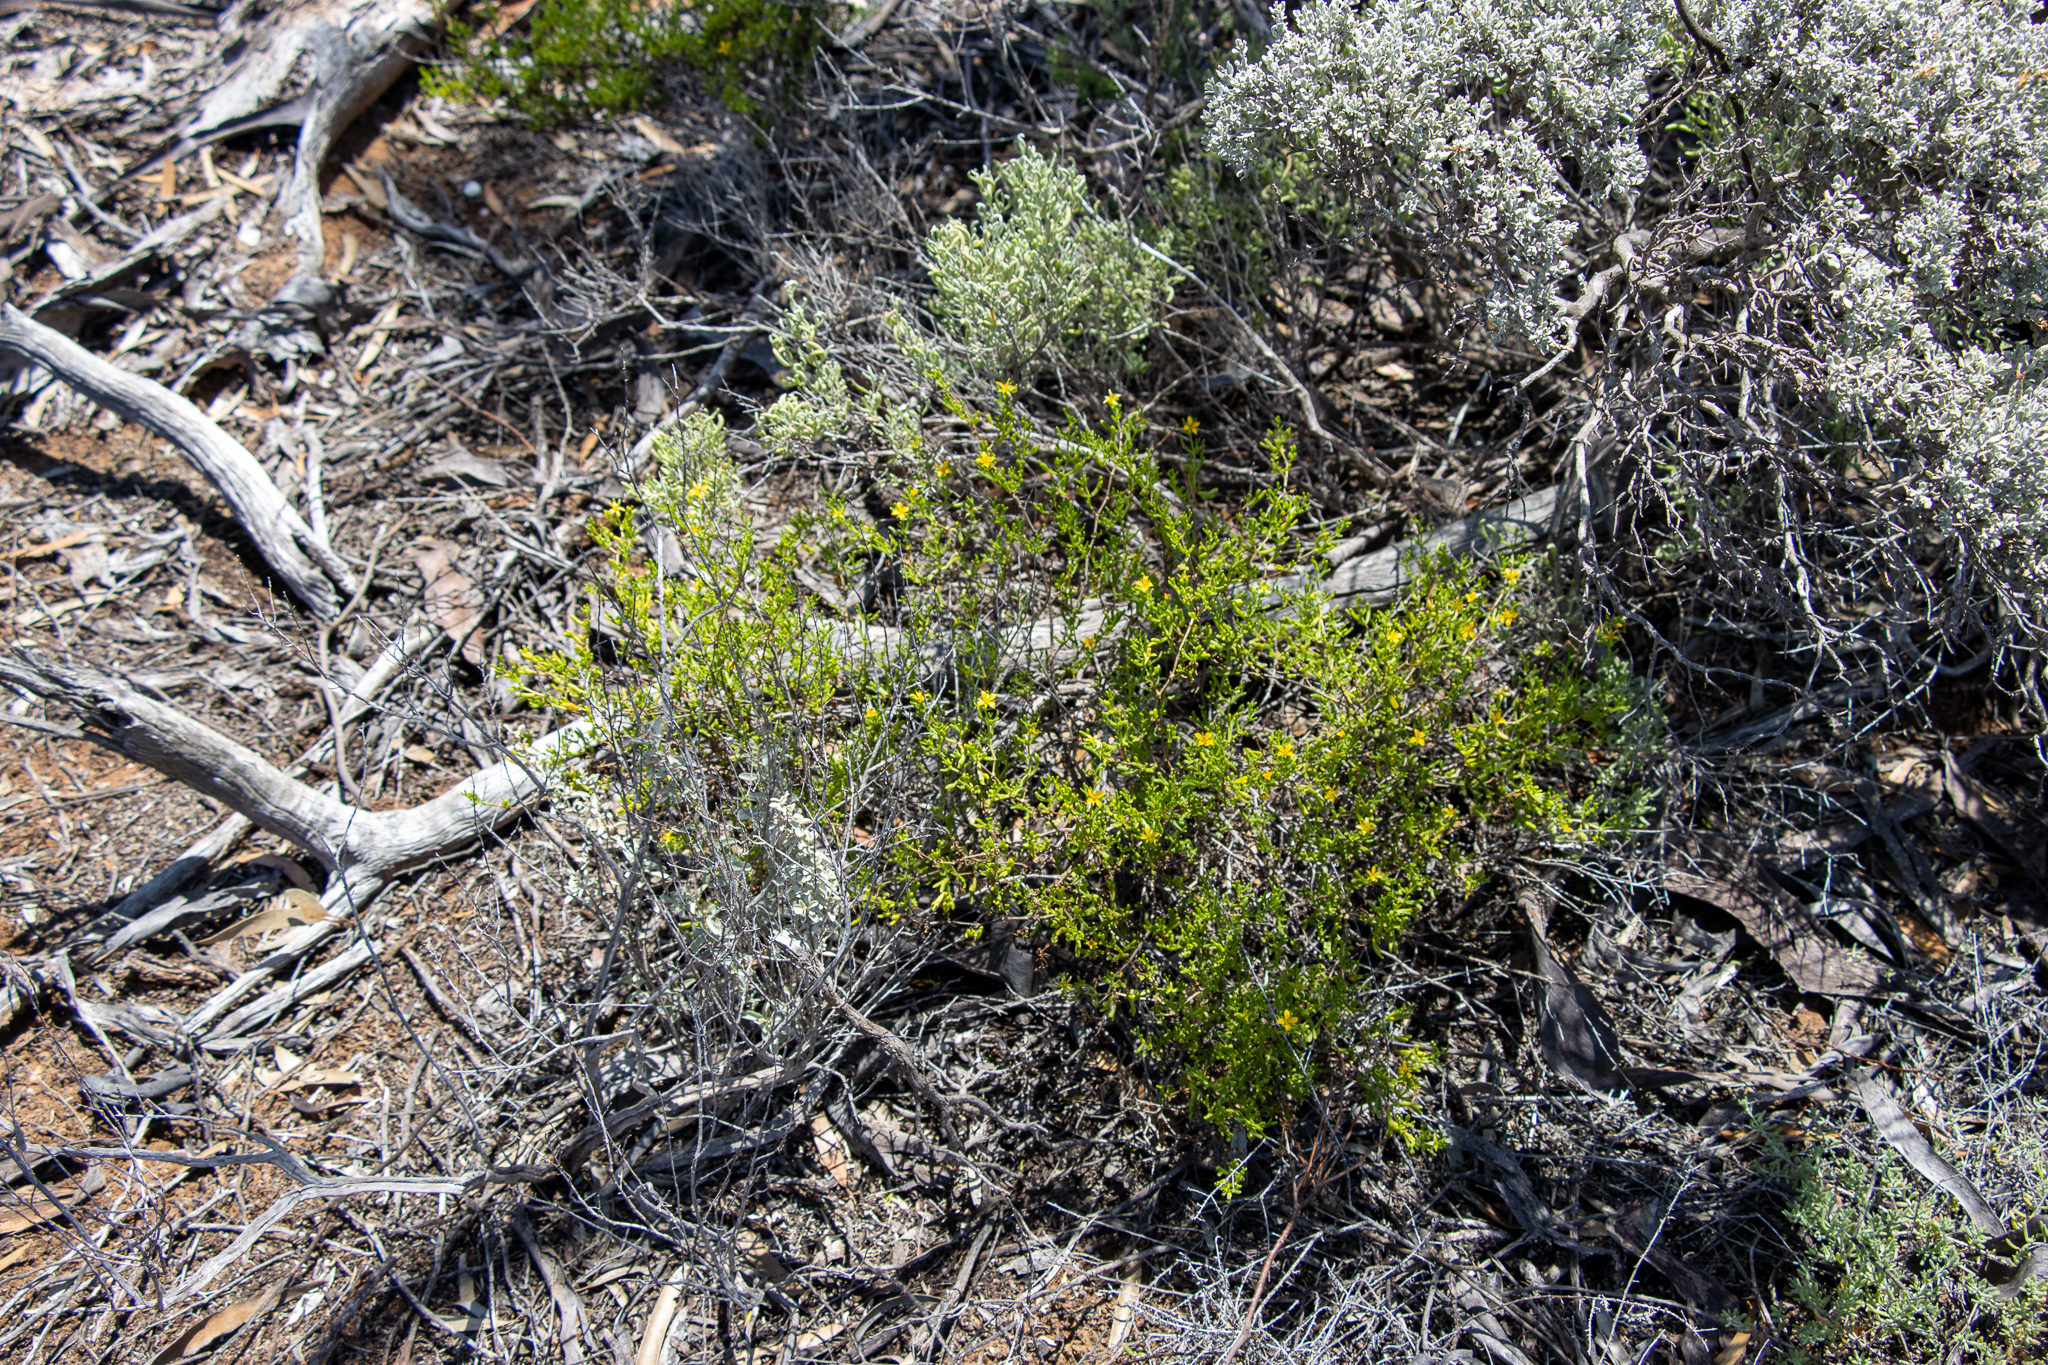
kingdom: Plantae
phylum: Tracheophyta
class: Magnoliopsida
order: Zygophyllales
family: Zygophyllaceae
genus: Roepera
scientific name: Roepera aurantiaca
